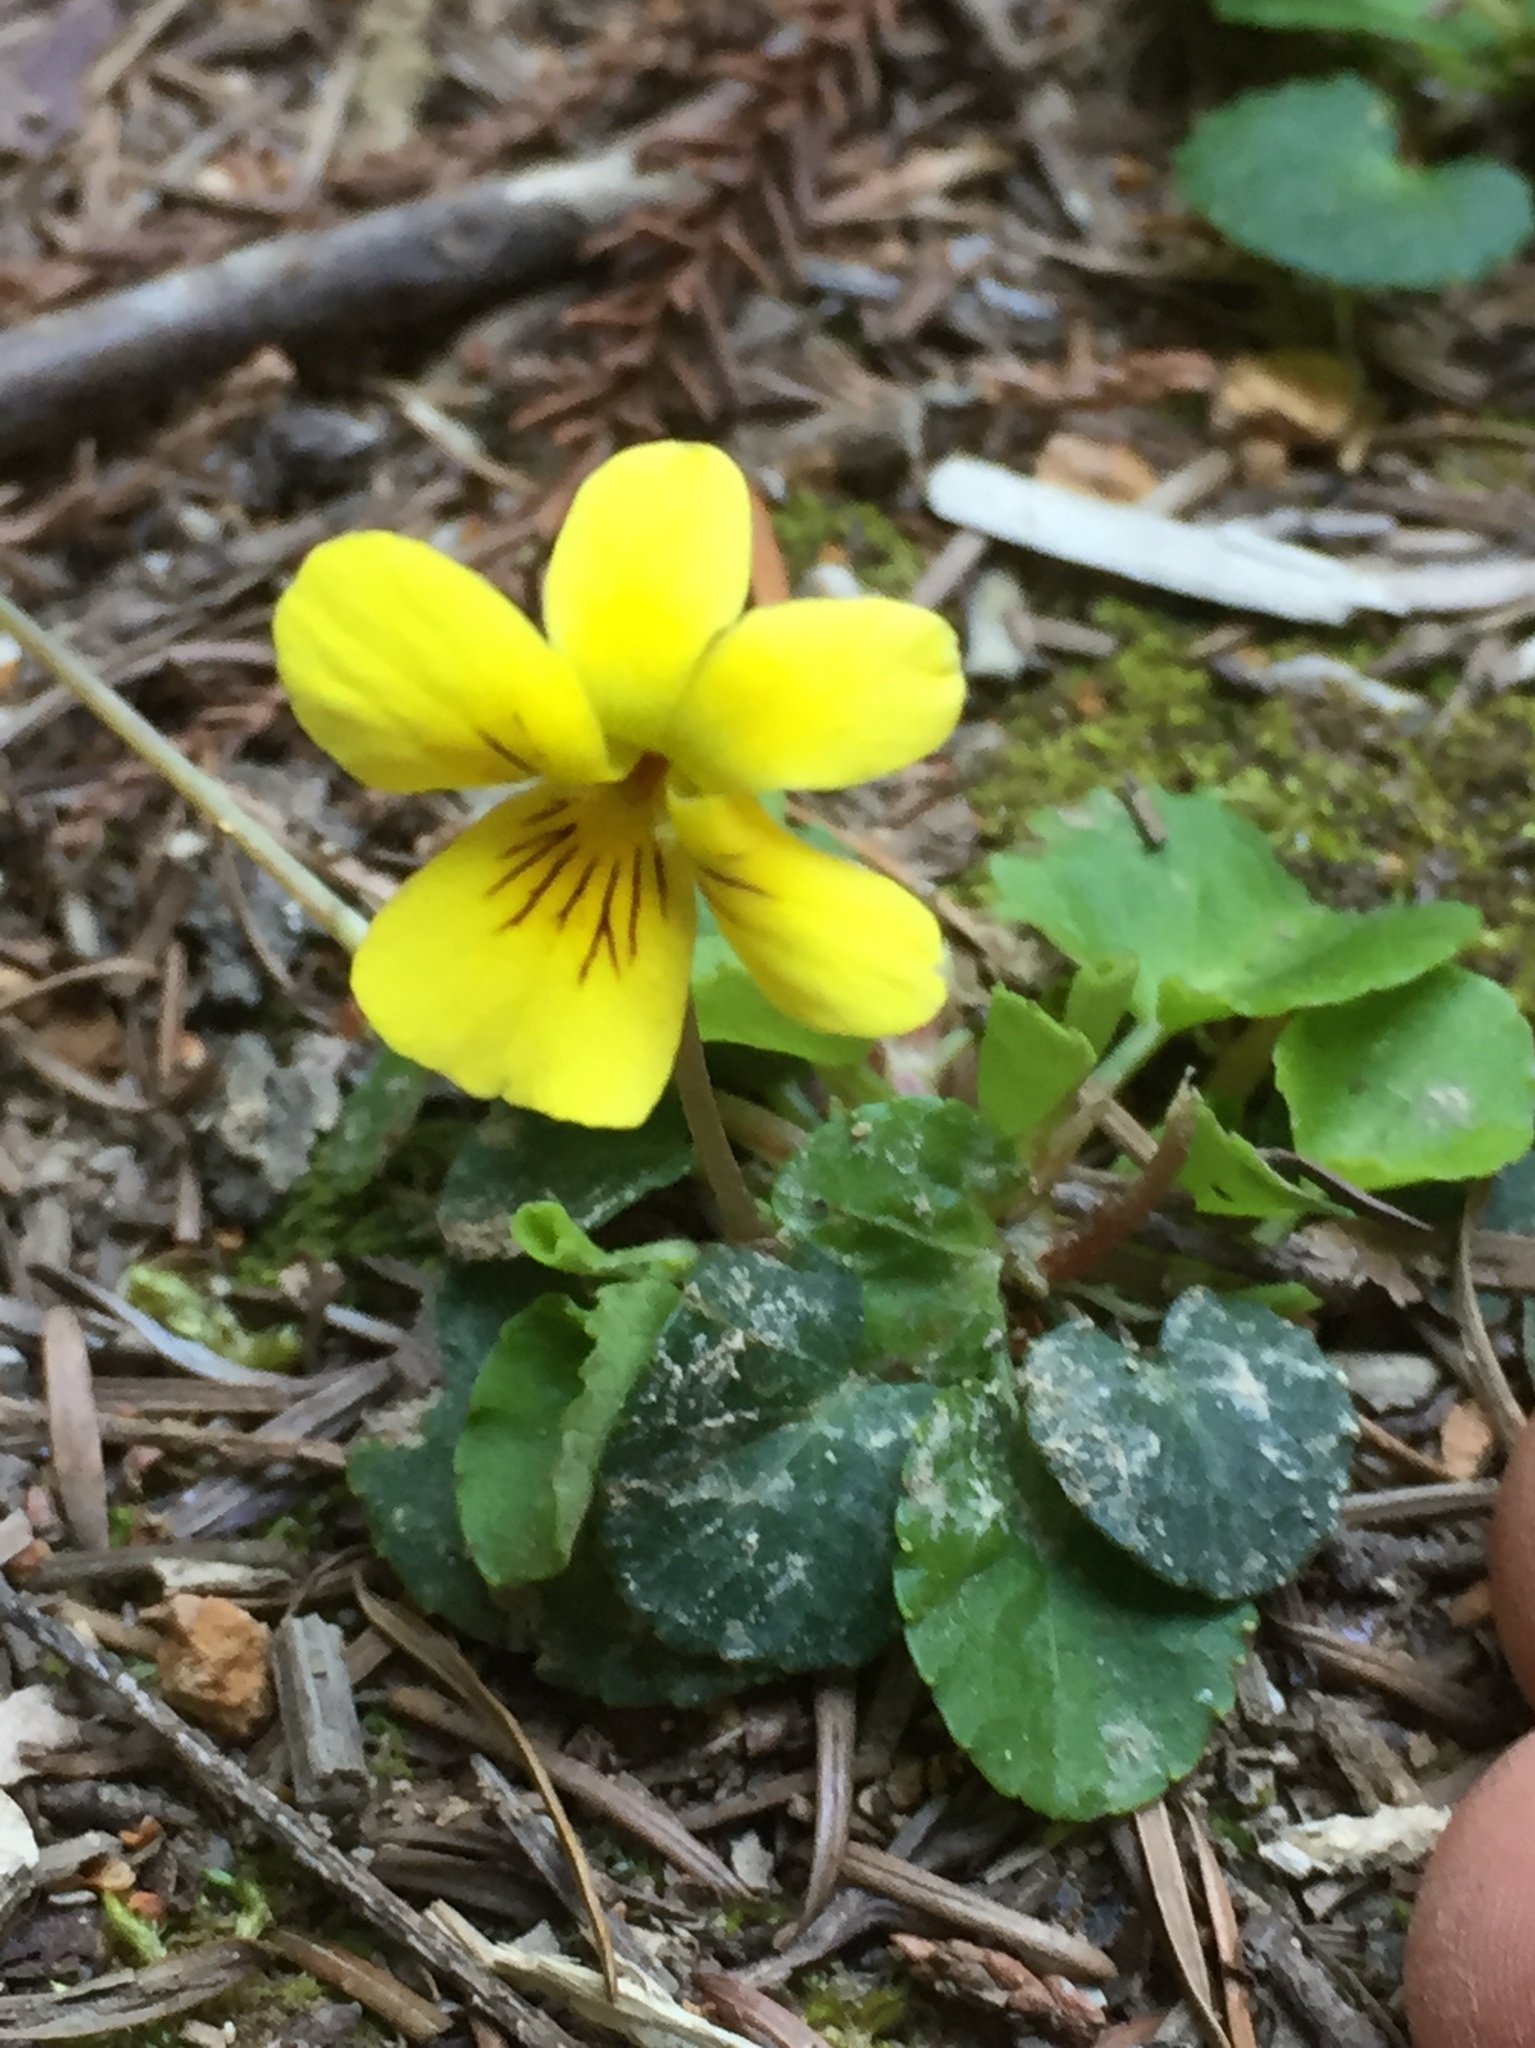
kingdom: Plantae
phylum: Tracheophyta
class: Magnoliopsida
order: Malpighiales
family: Violaceae
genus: Viola
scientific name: Viola sempervirens
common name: Evergreen violet
